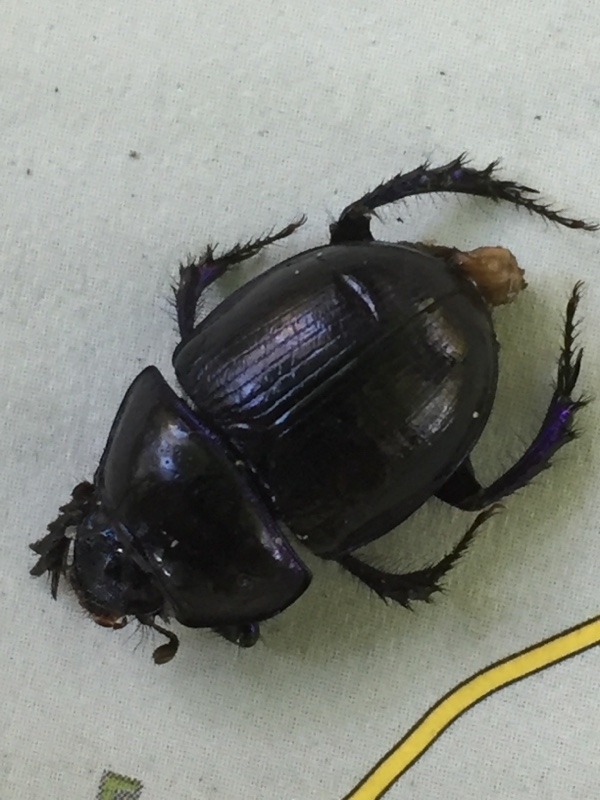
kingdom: Animalia
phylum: Arthropoda
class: Insecta
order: Coleoptera
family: Geotrupidae
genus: Anoplotrupes
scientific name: Anoplotrupes stercorosus
